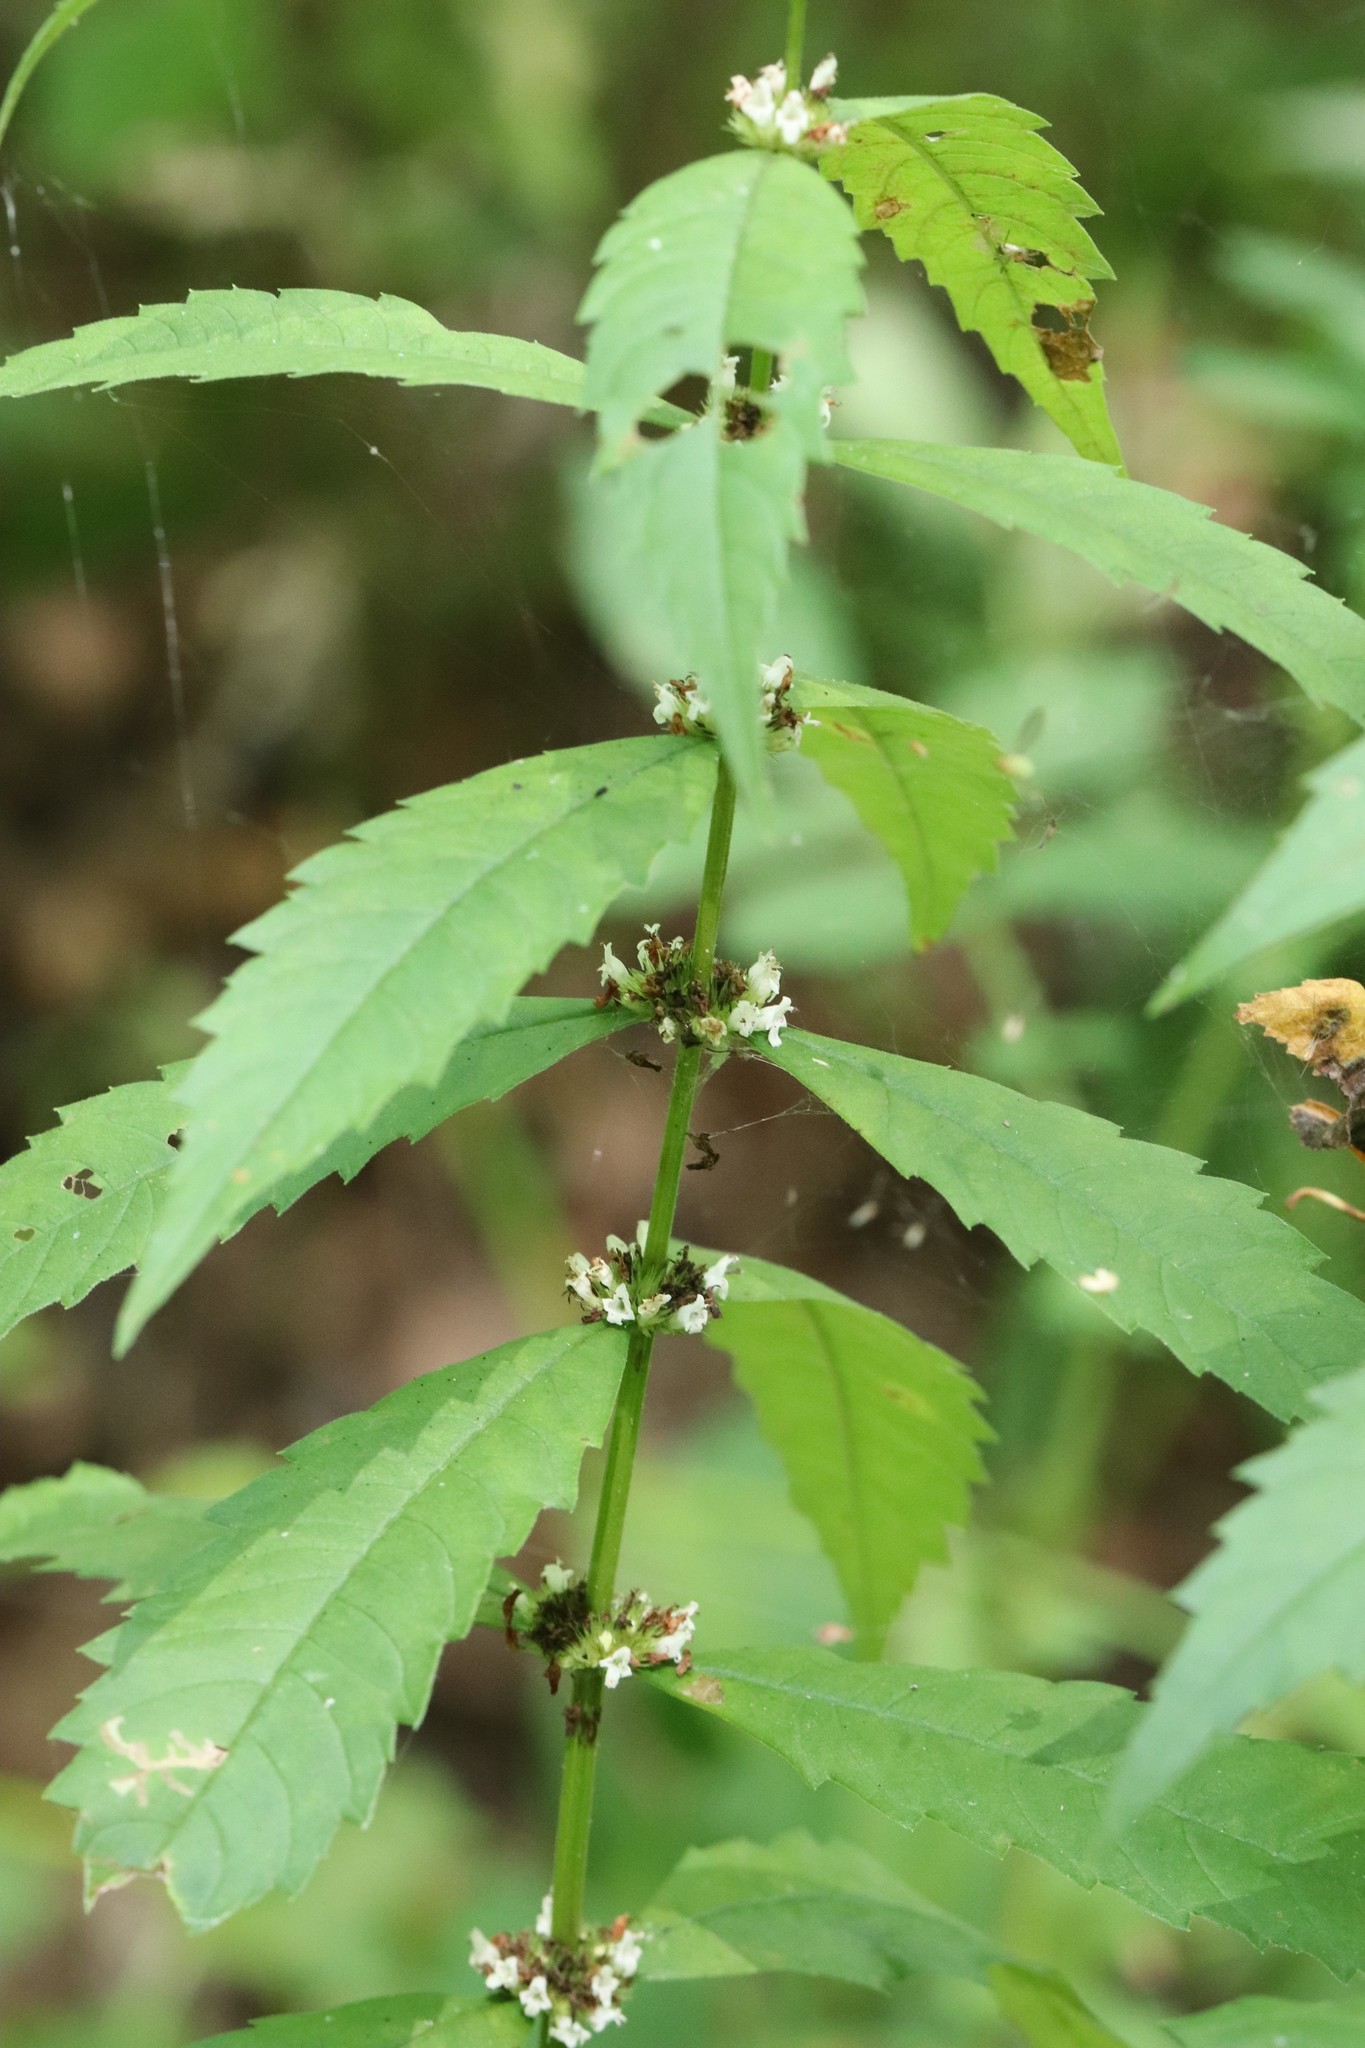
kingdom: Plantae
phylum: Tracheophyta
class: Magnoliopsida
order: Lamiales
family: Lamiaceae
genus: Lycopus
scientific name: Lycopus lucidus
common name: Shiny bugleweed
